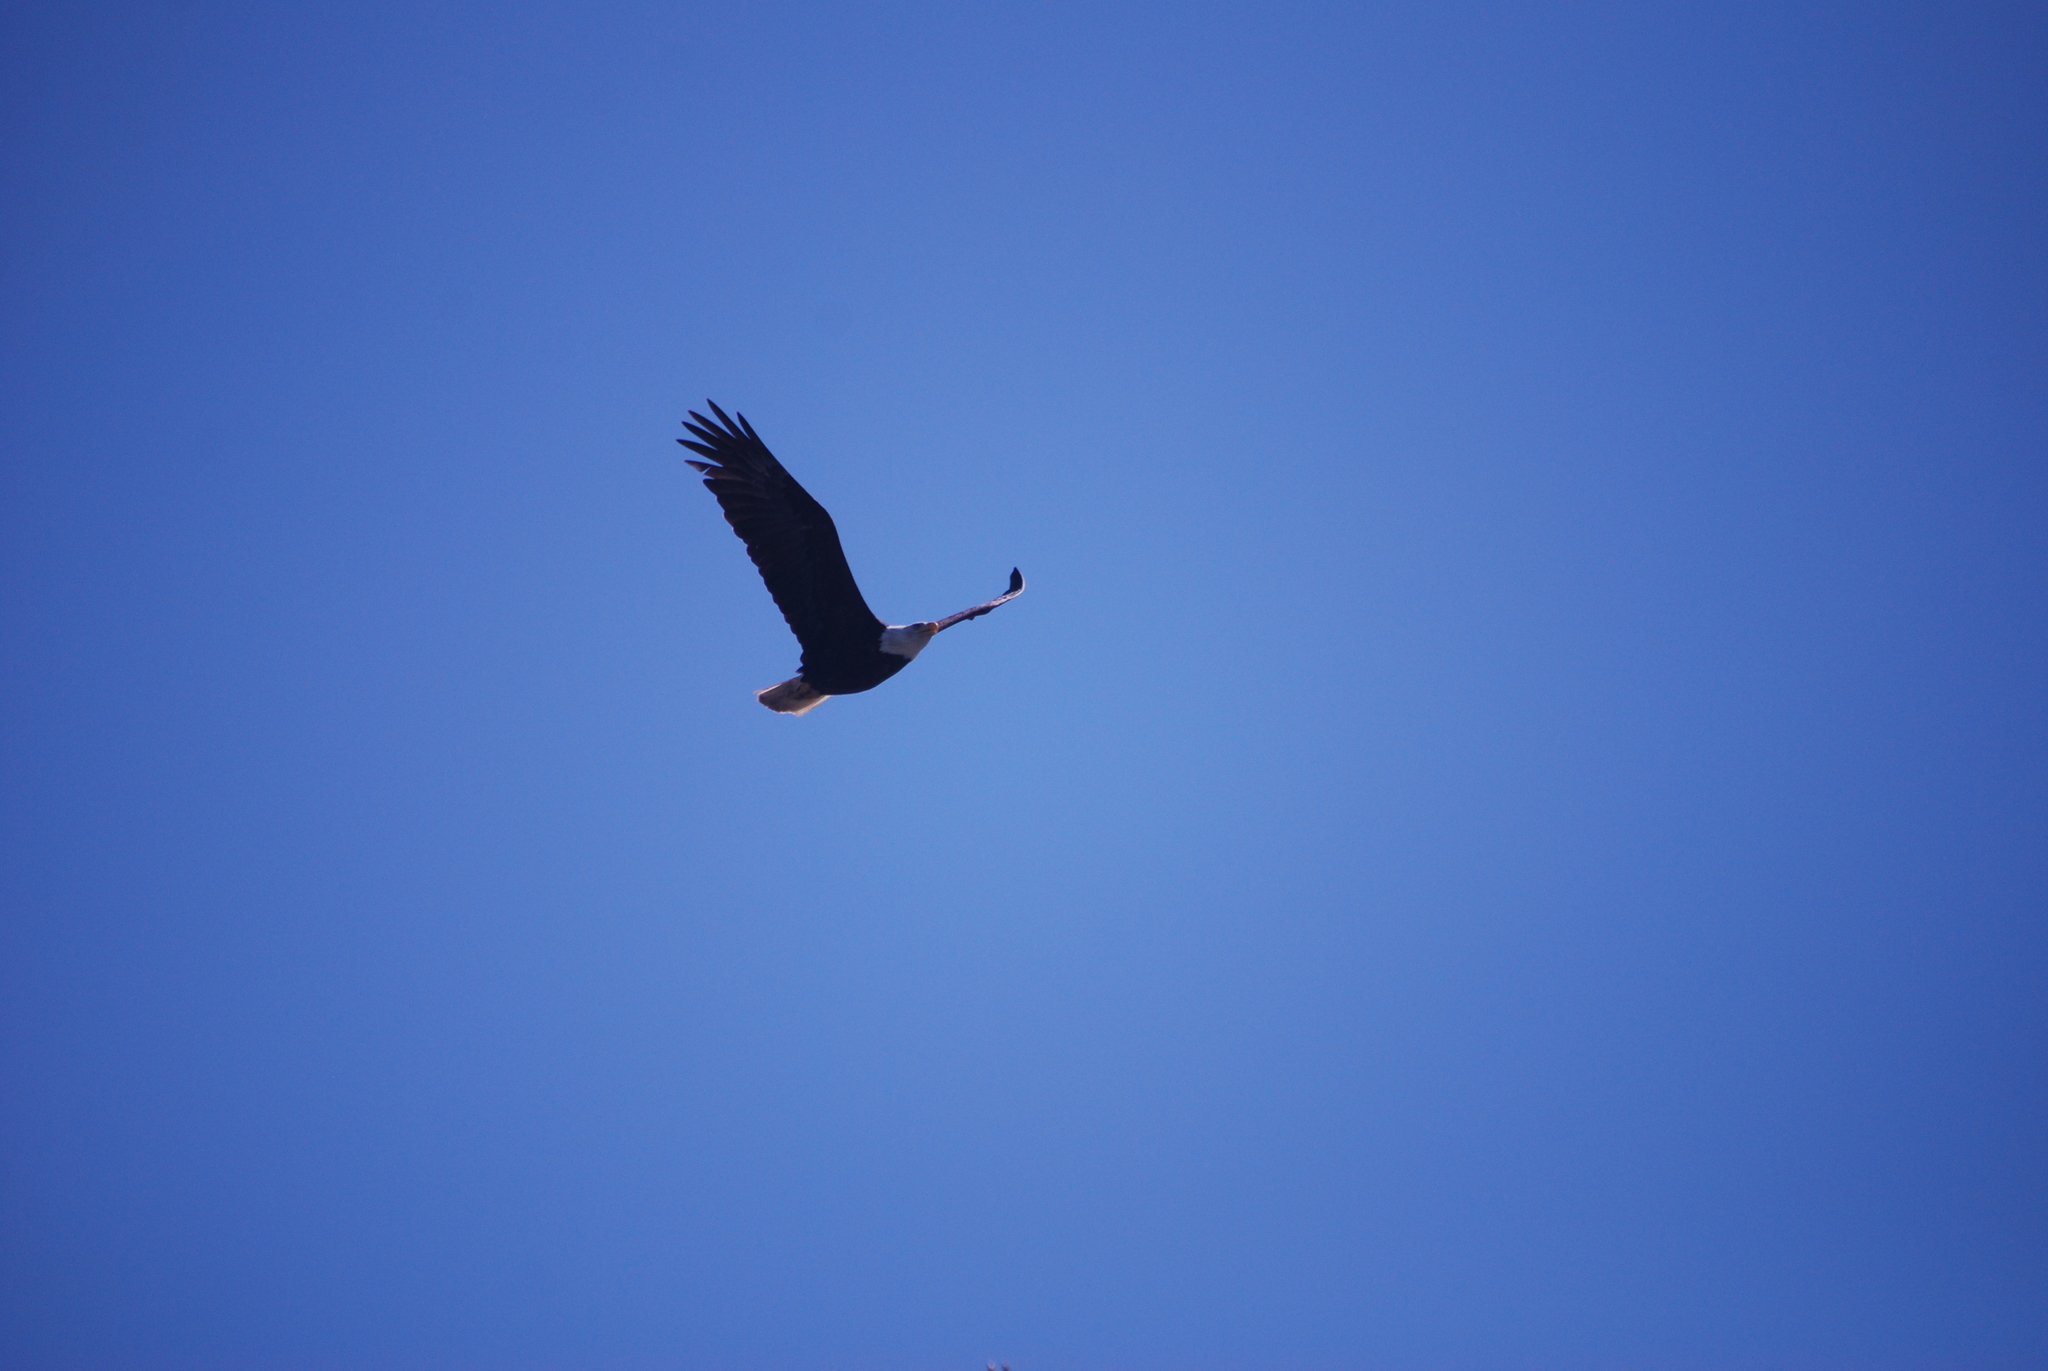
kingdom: Animalia
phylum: Chordata
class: Aves
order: Accipitriformes
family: Accipitridae
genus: Haliaeetus
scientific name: Haliaeetus leucocephalus
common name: Bald eagle
